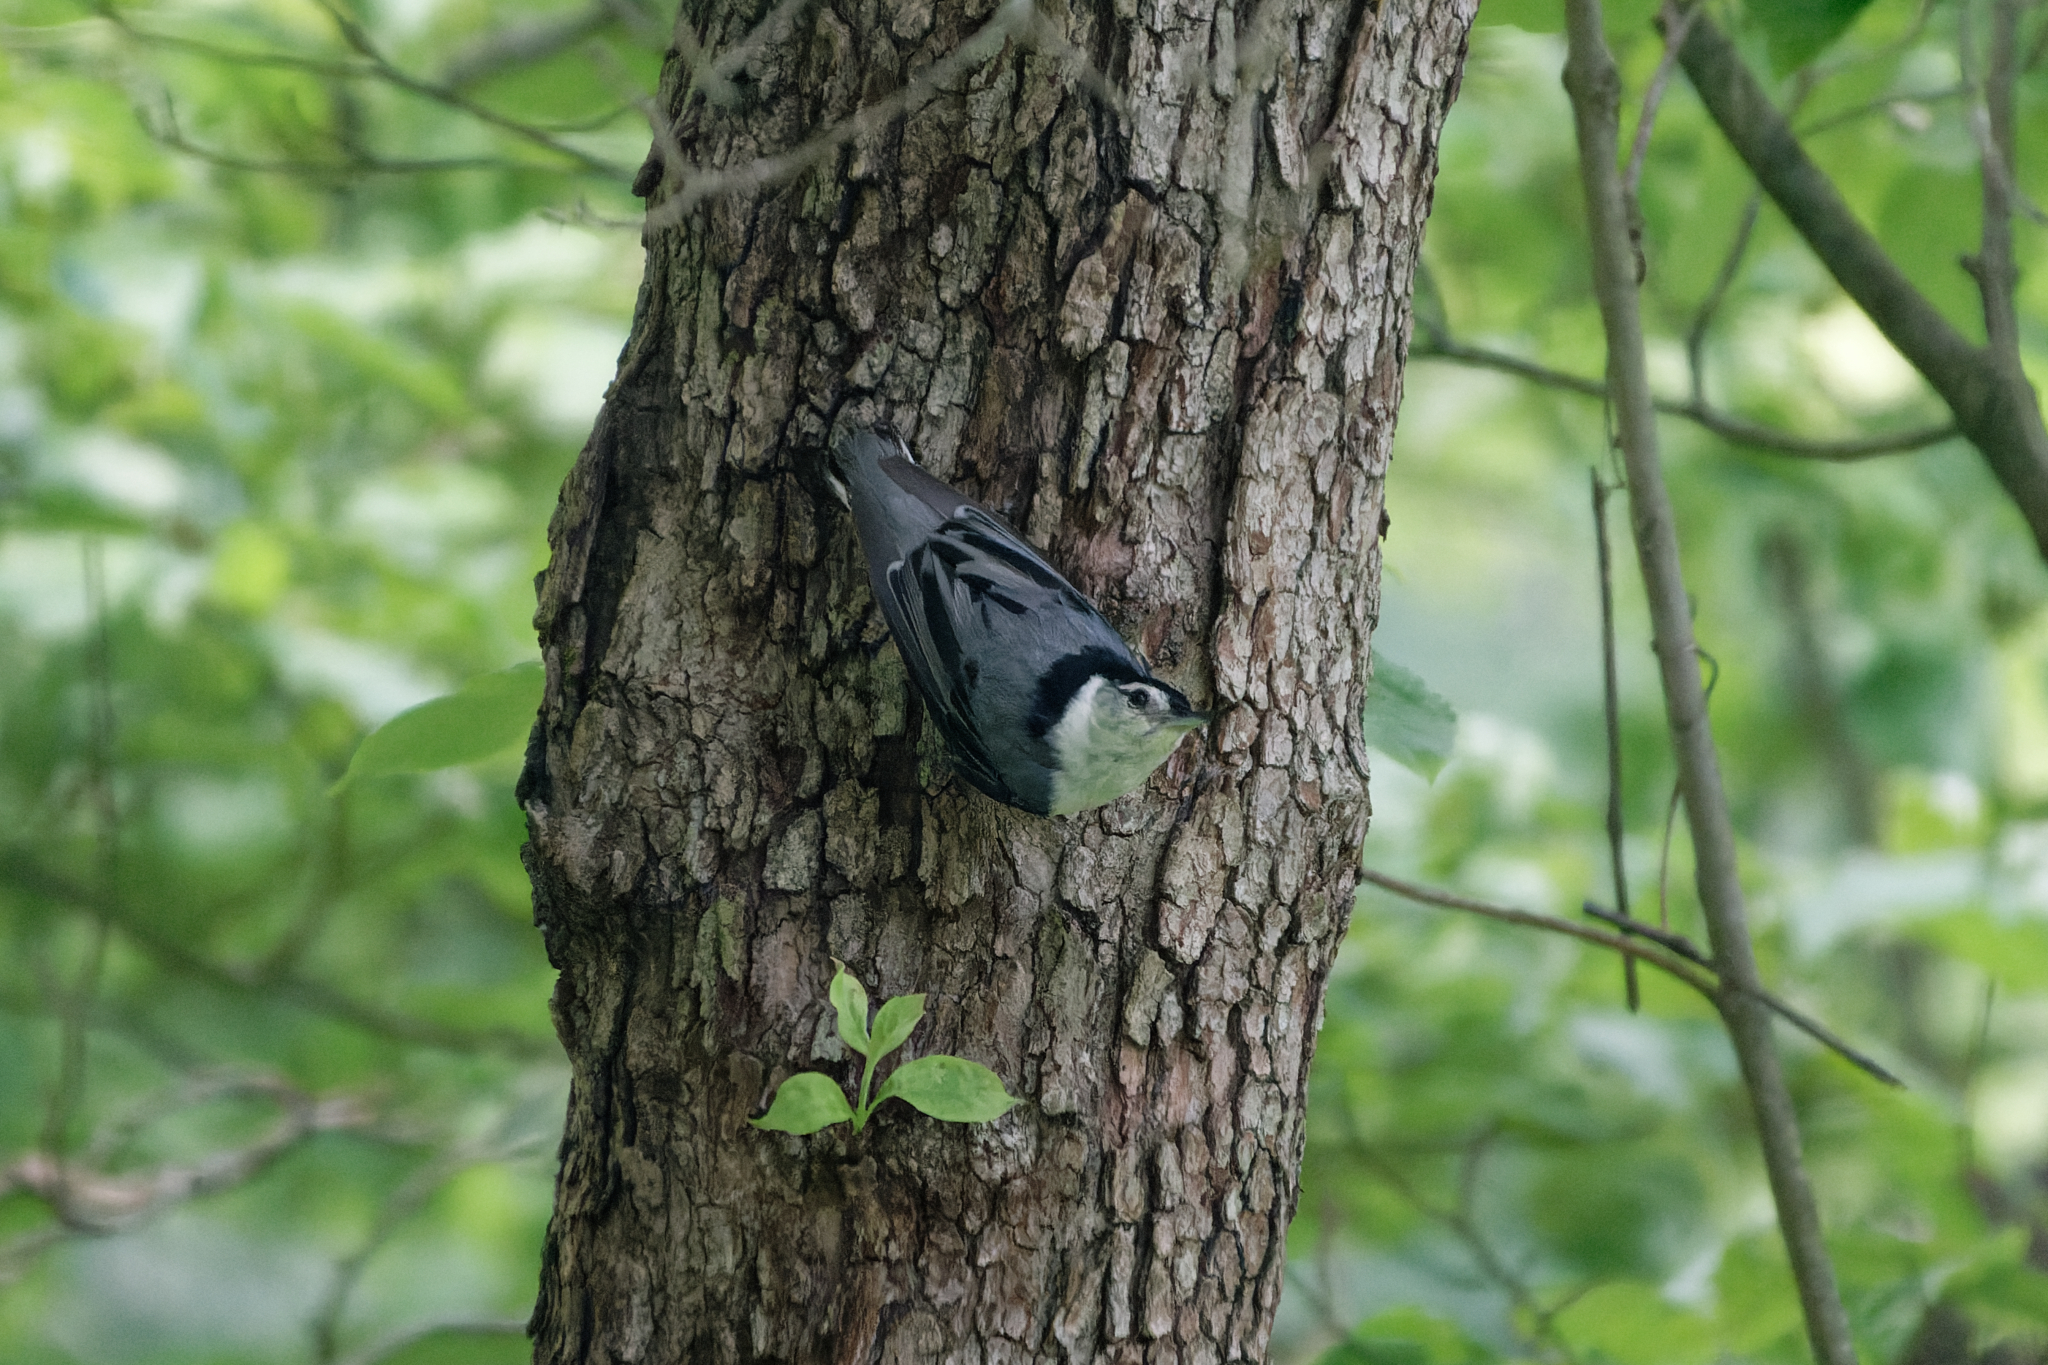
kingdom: Animalia
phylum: Chordata
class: Aves
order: Passeriformes
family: Sittidae
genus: Sitta
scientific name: Sitta carolinensis
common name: White-breasted nuthatch
